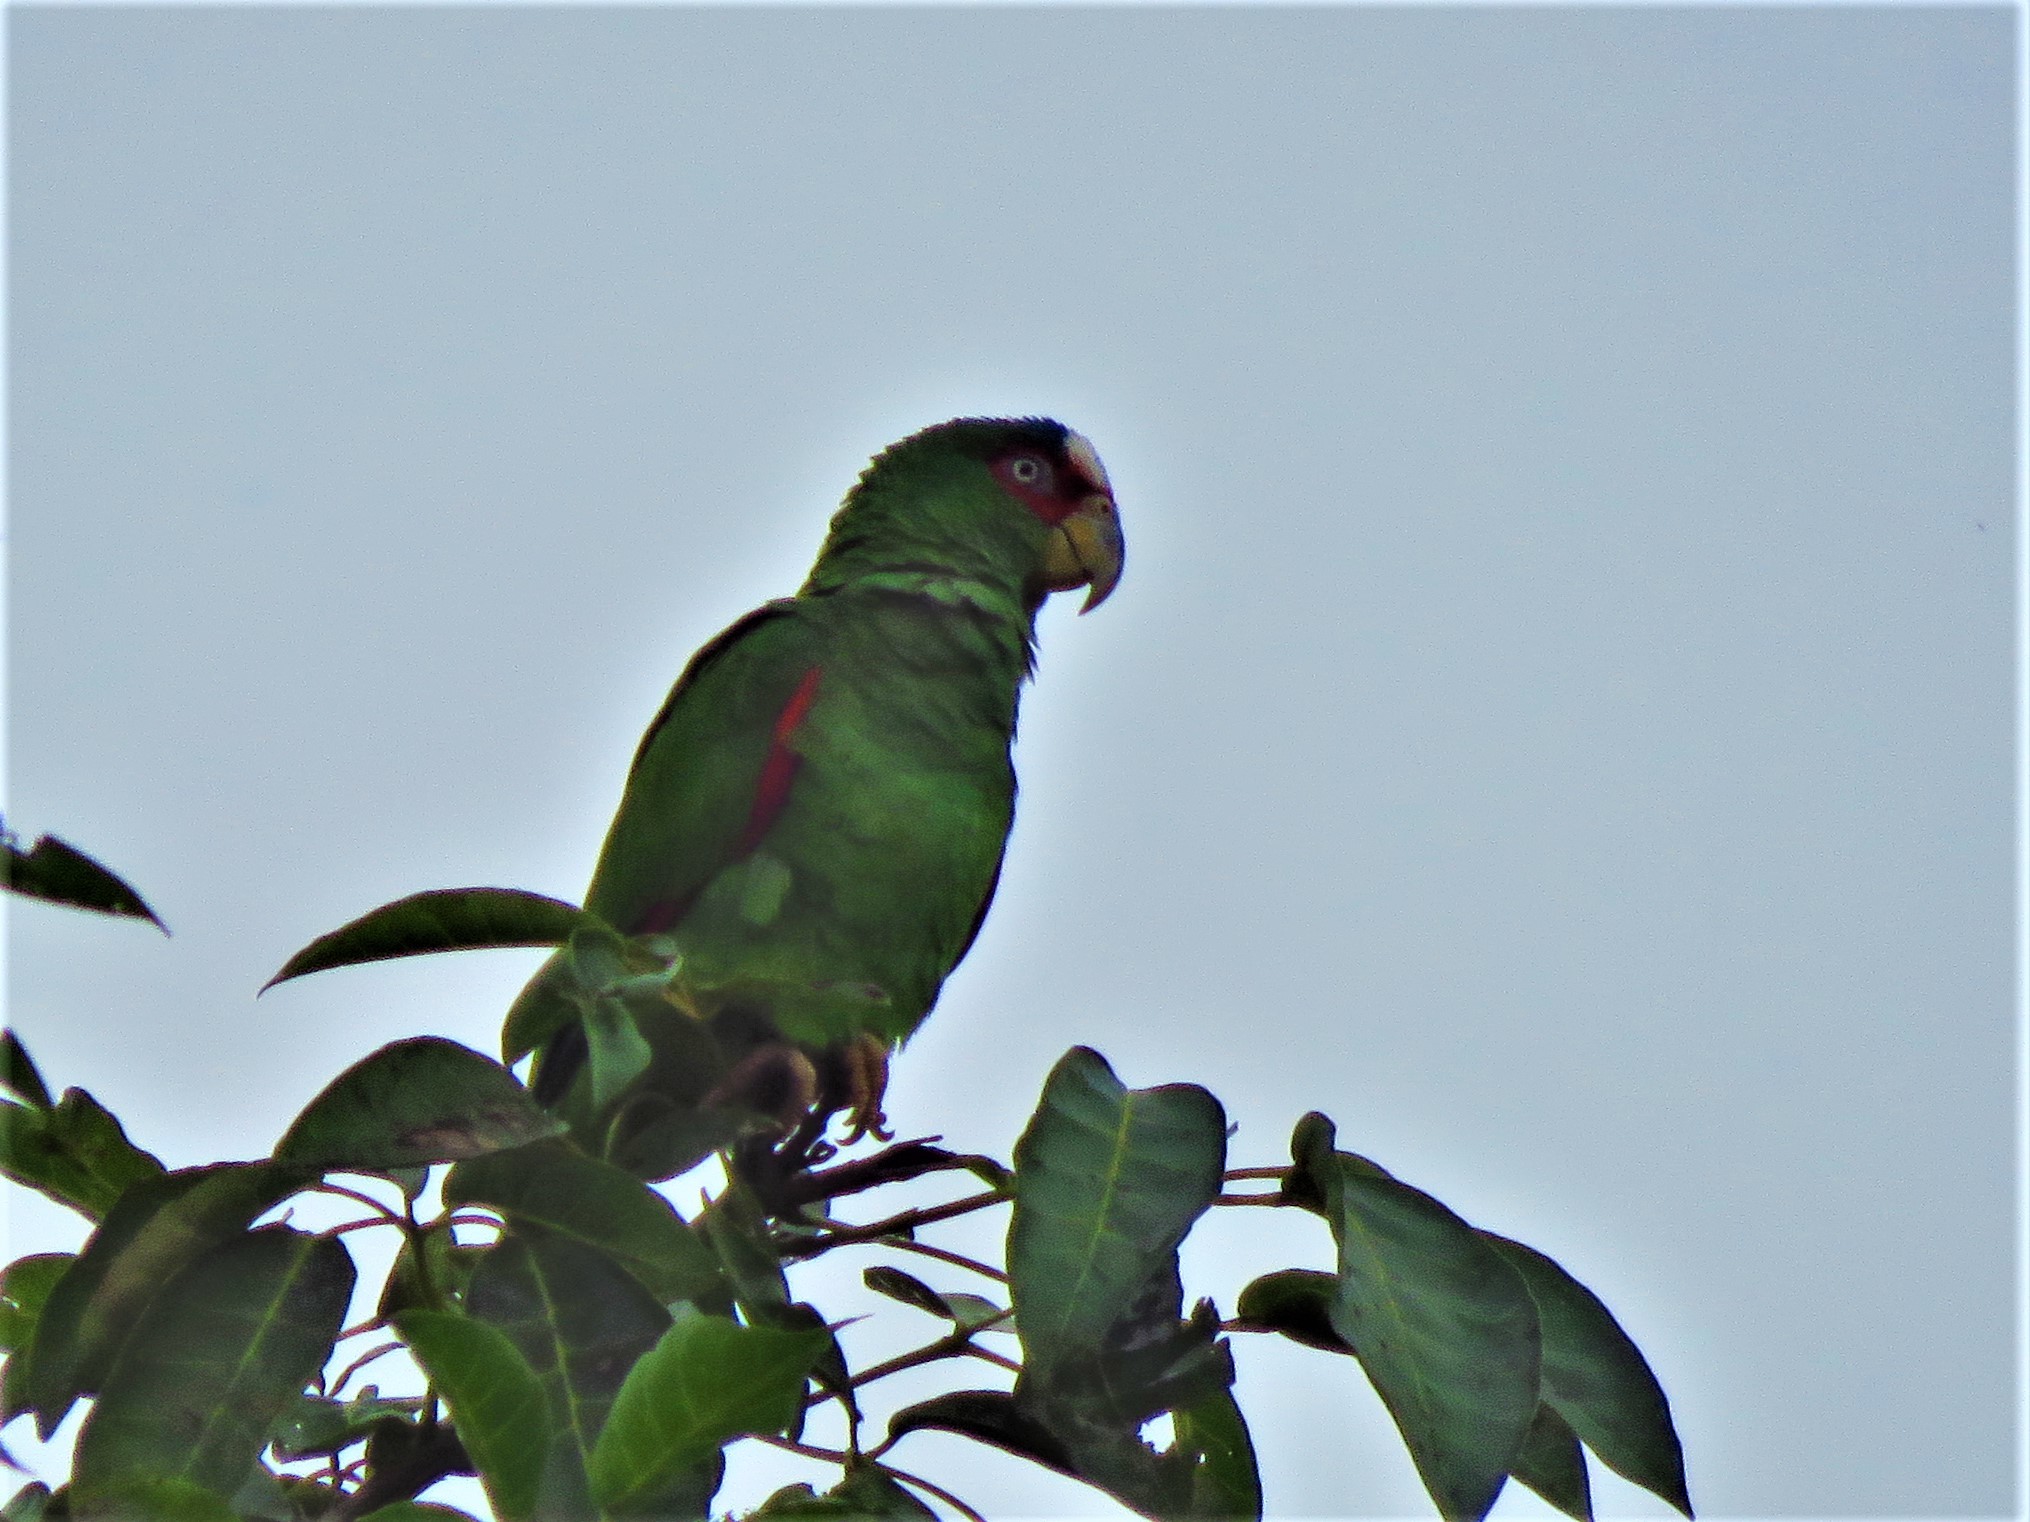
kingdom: Animalia
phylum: Chordata
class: Aves
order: Psittaciformes
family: Psittacidae
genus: Amazona
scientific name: Amazona albifrons
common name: White-fronted amazon
